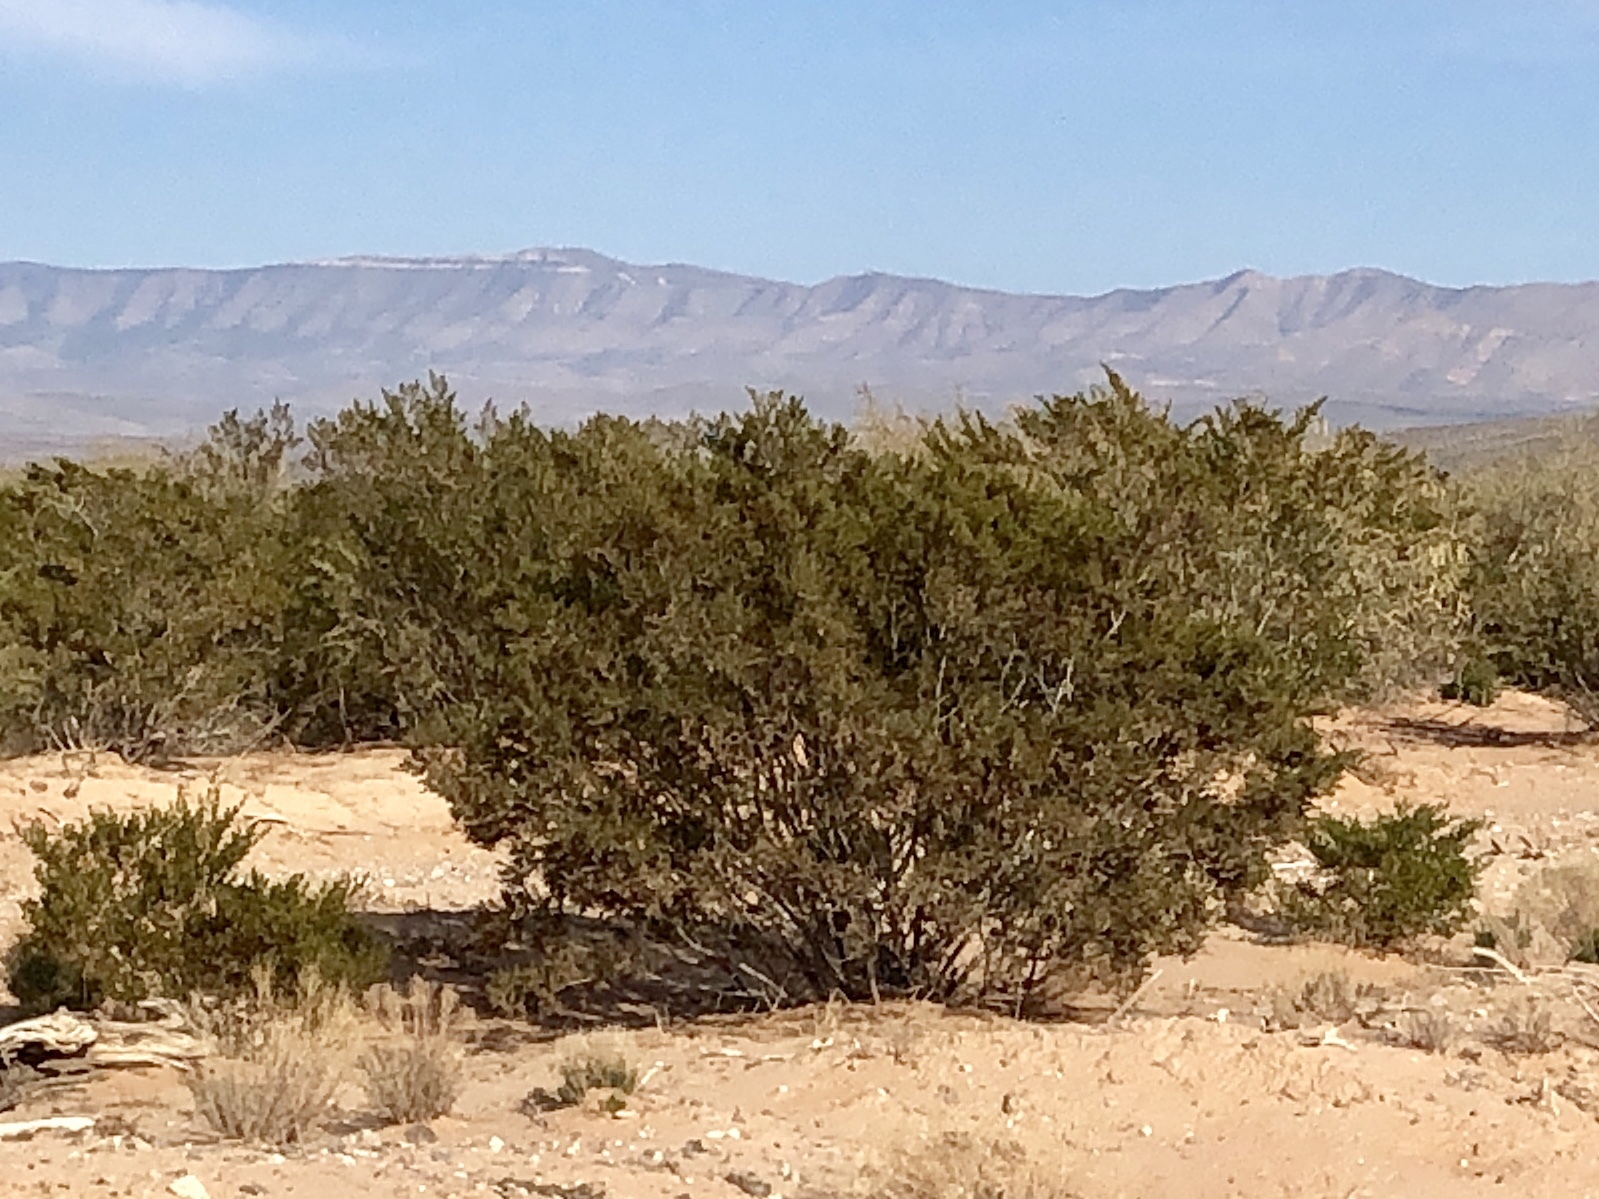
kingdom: Plantae
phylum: Tracheophyta
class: Magnoliopsida
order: Zygophyllales
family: Zygophyllaceae
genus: Larrea
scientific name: Larrea tridentata
